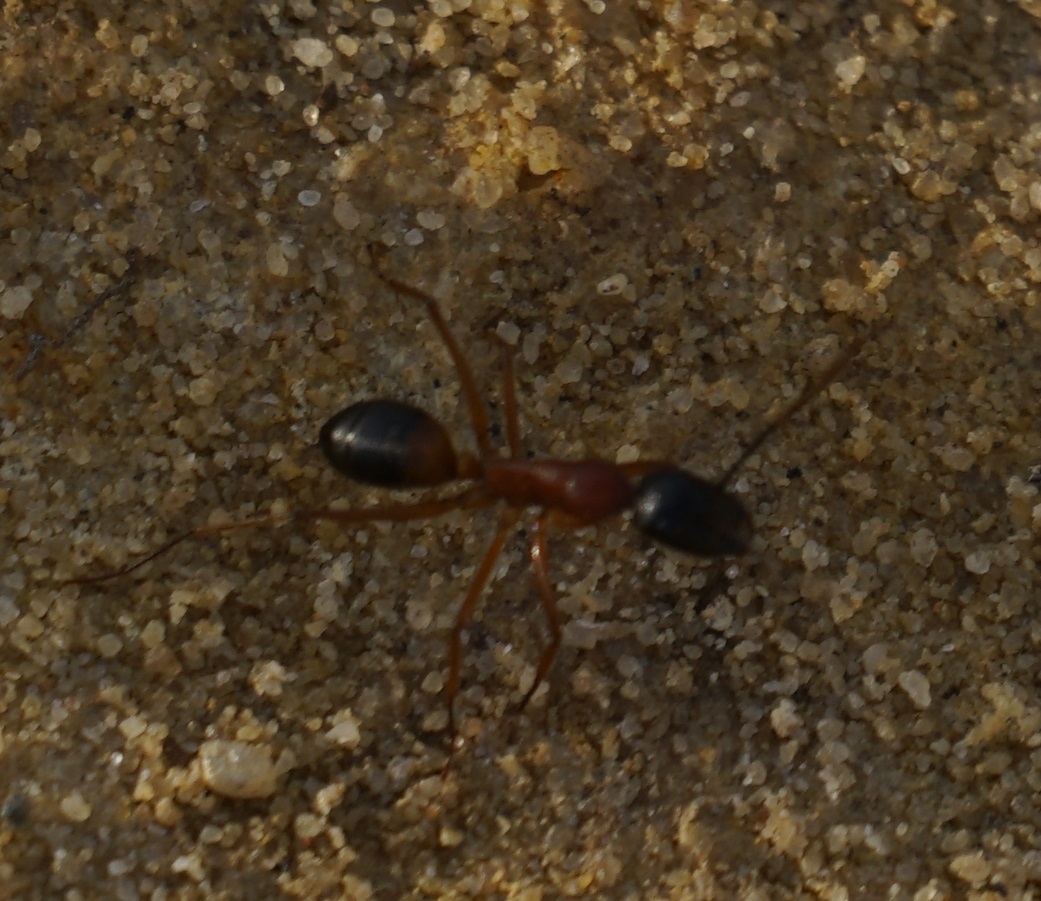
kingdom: Animalia
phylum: Arthropoda
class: Insecta
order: Hymenoptera
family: Formicidae
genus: Camponotus
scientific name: Camponotus consobrinus
